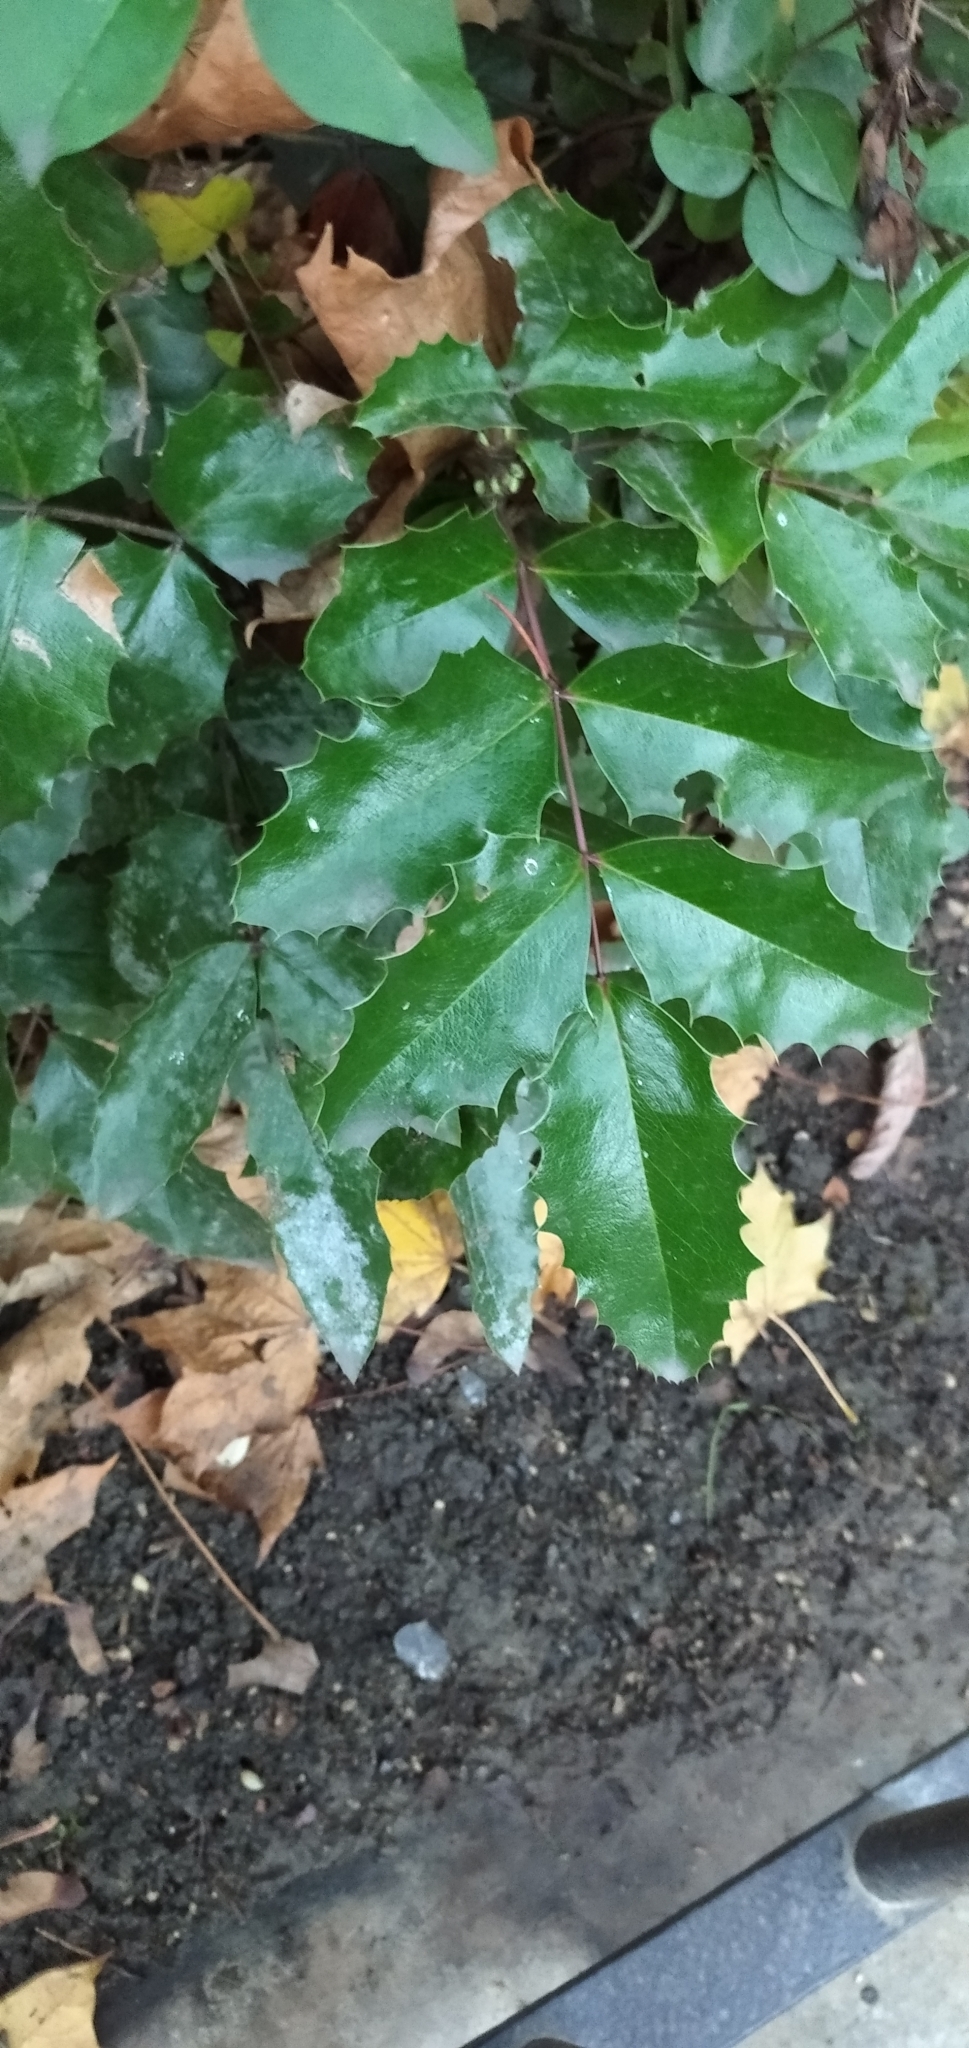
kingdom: Plantae
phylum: Tracheophyta
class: Magnoliopsida
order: Ranunculales
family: Berberidaceae
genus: Mahonia
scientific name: Mahonia aquifolium
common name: Oregon-grape
